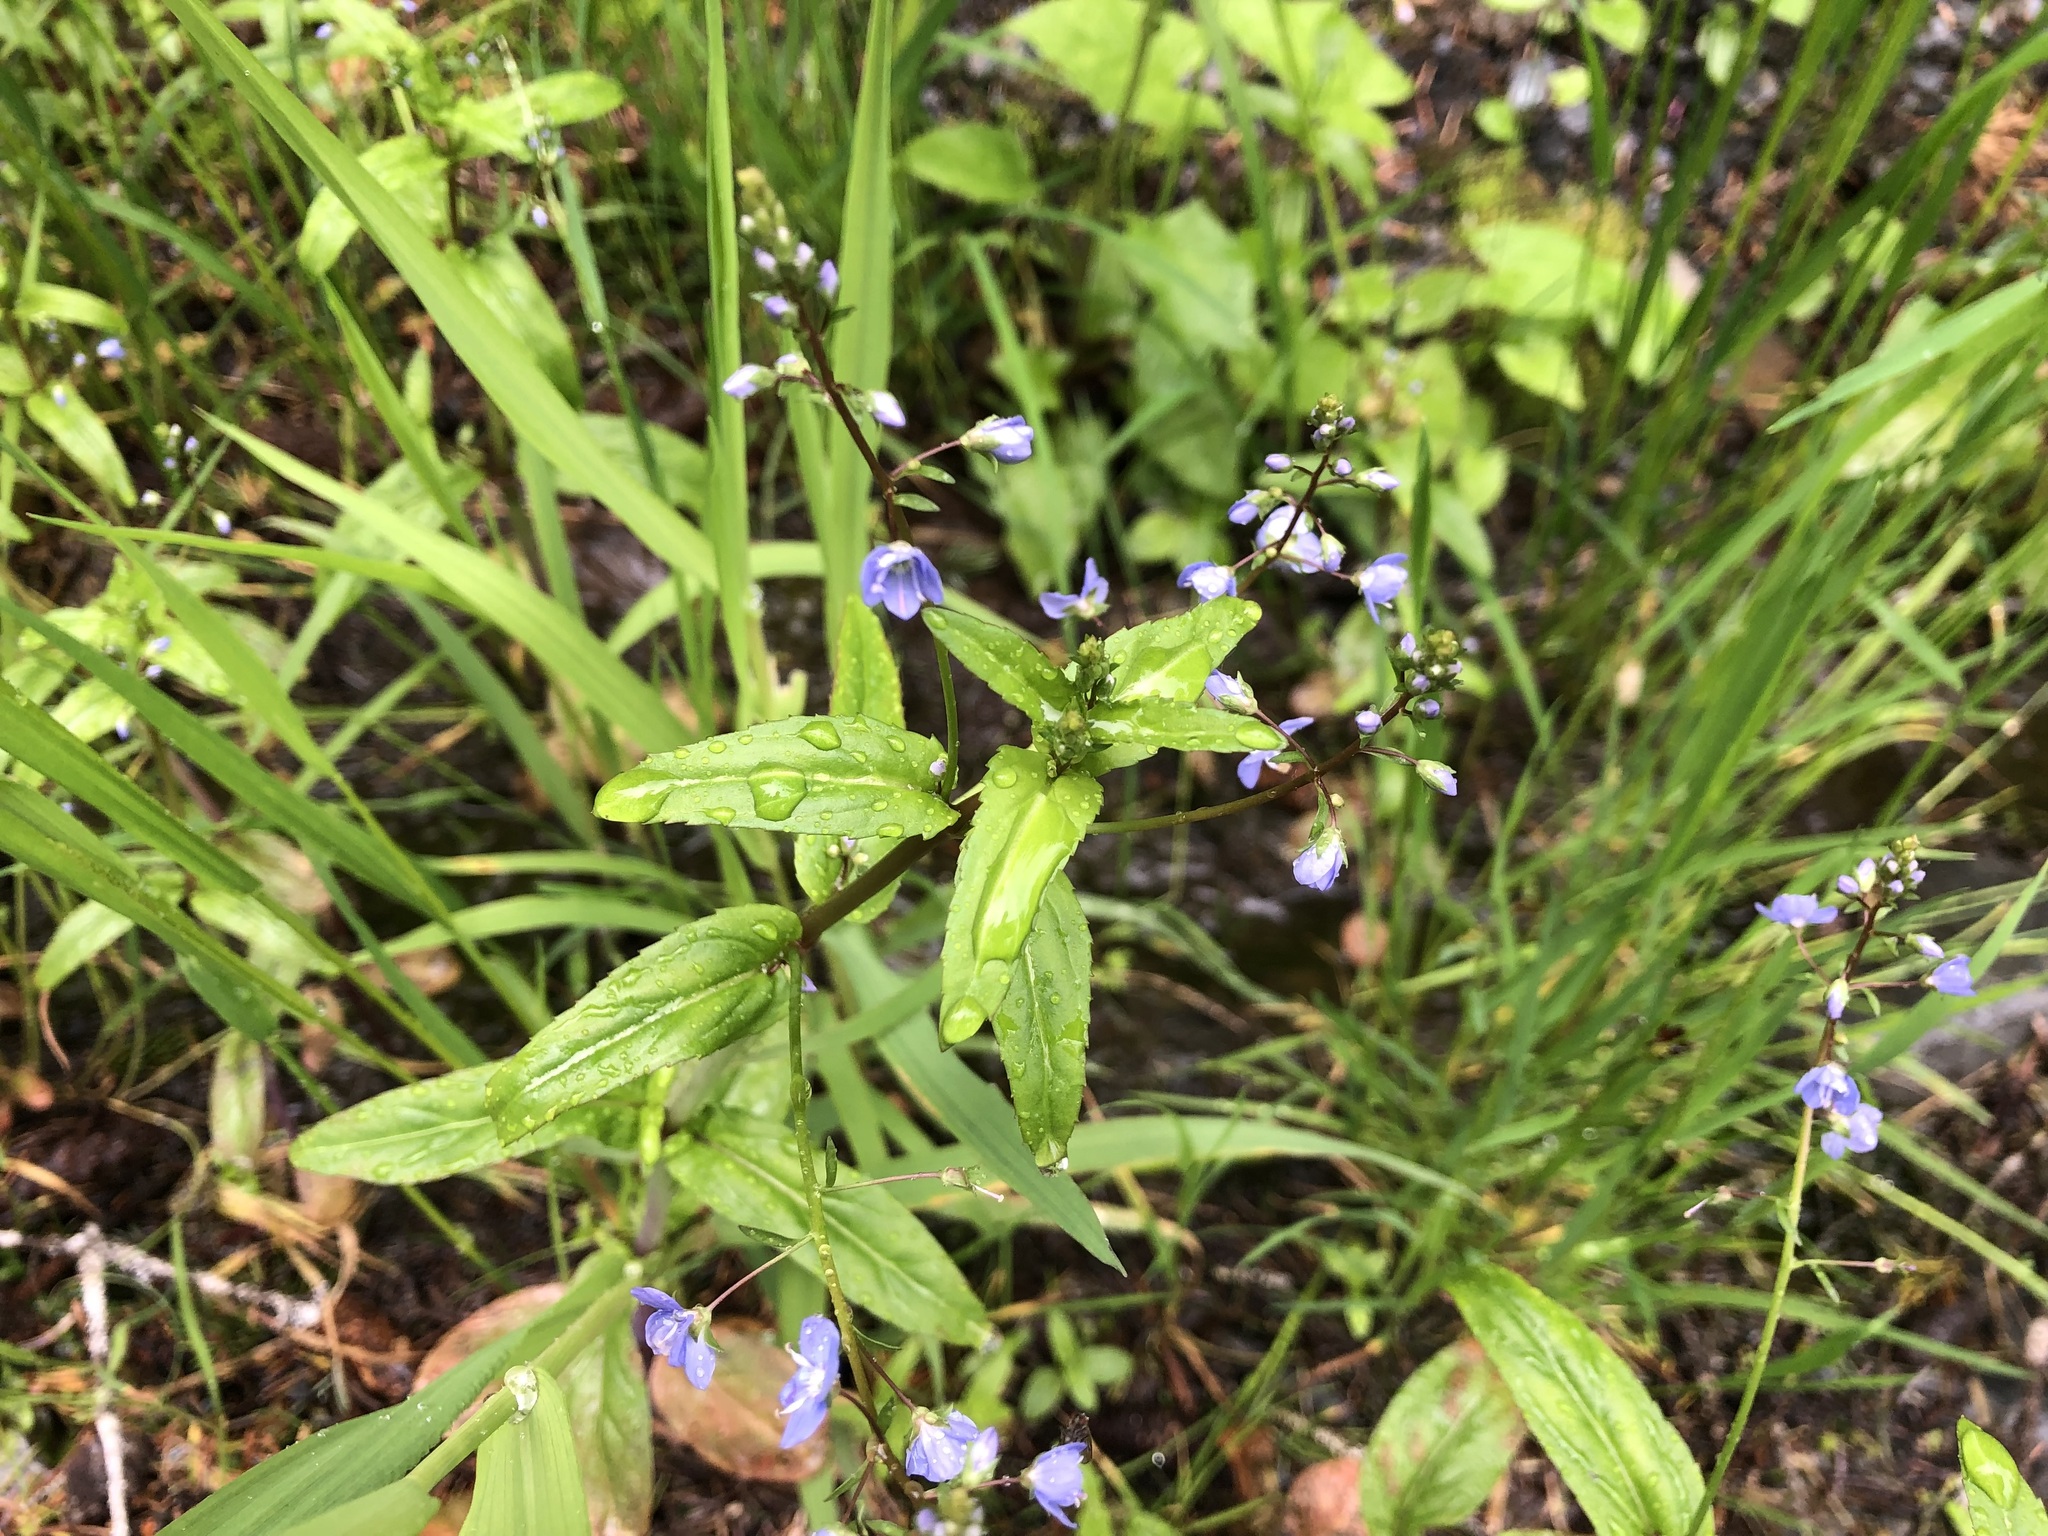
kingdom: Plantae
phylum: Tracheophyta
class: Magnoliopsida
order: Lamiales
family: Plantaginaceae
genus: Veronica
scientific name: Veronica americana
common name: American brooklime
